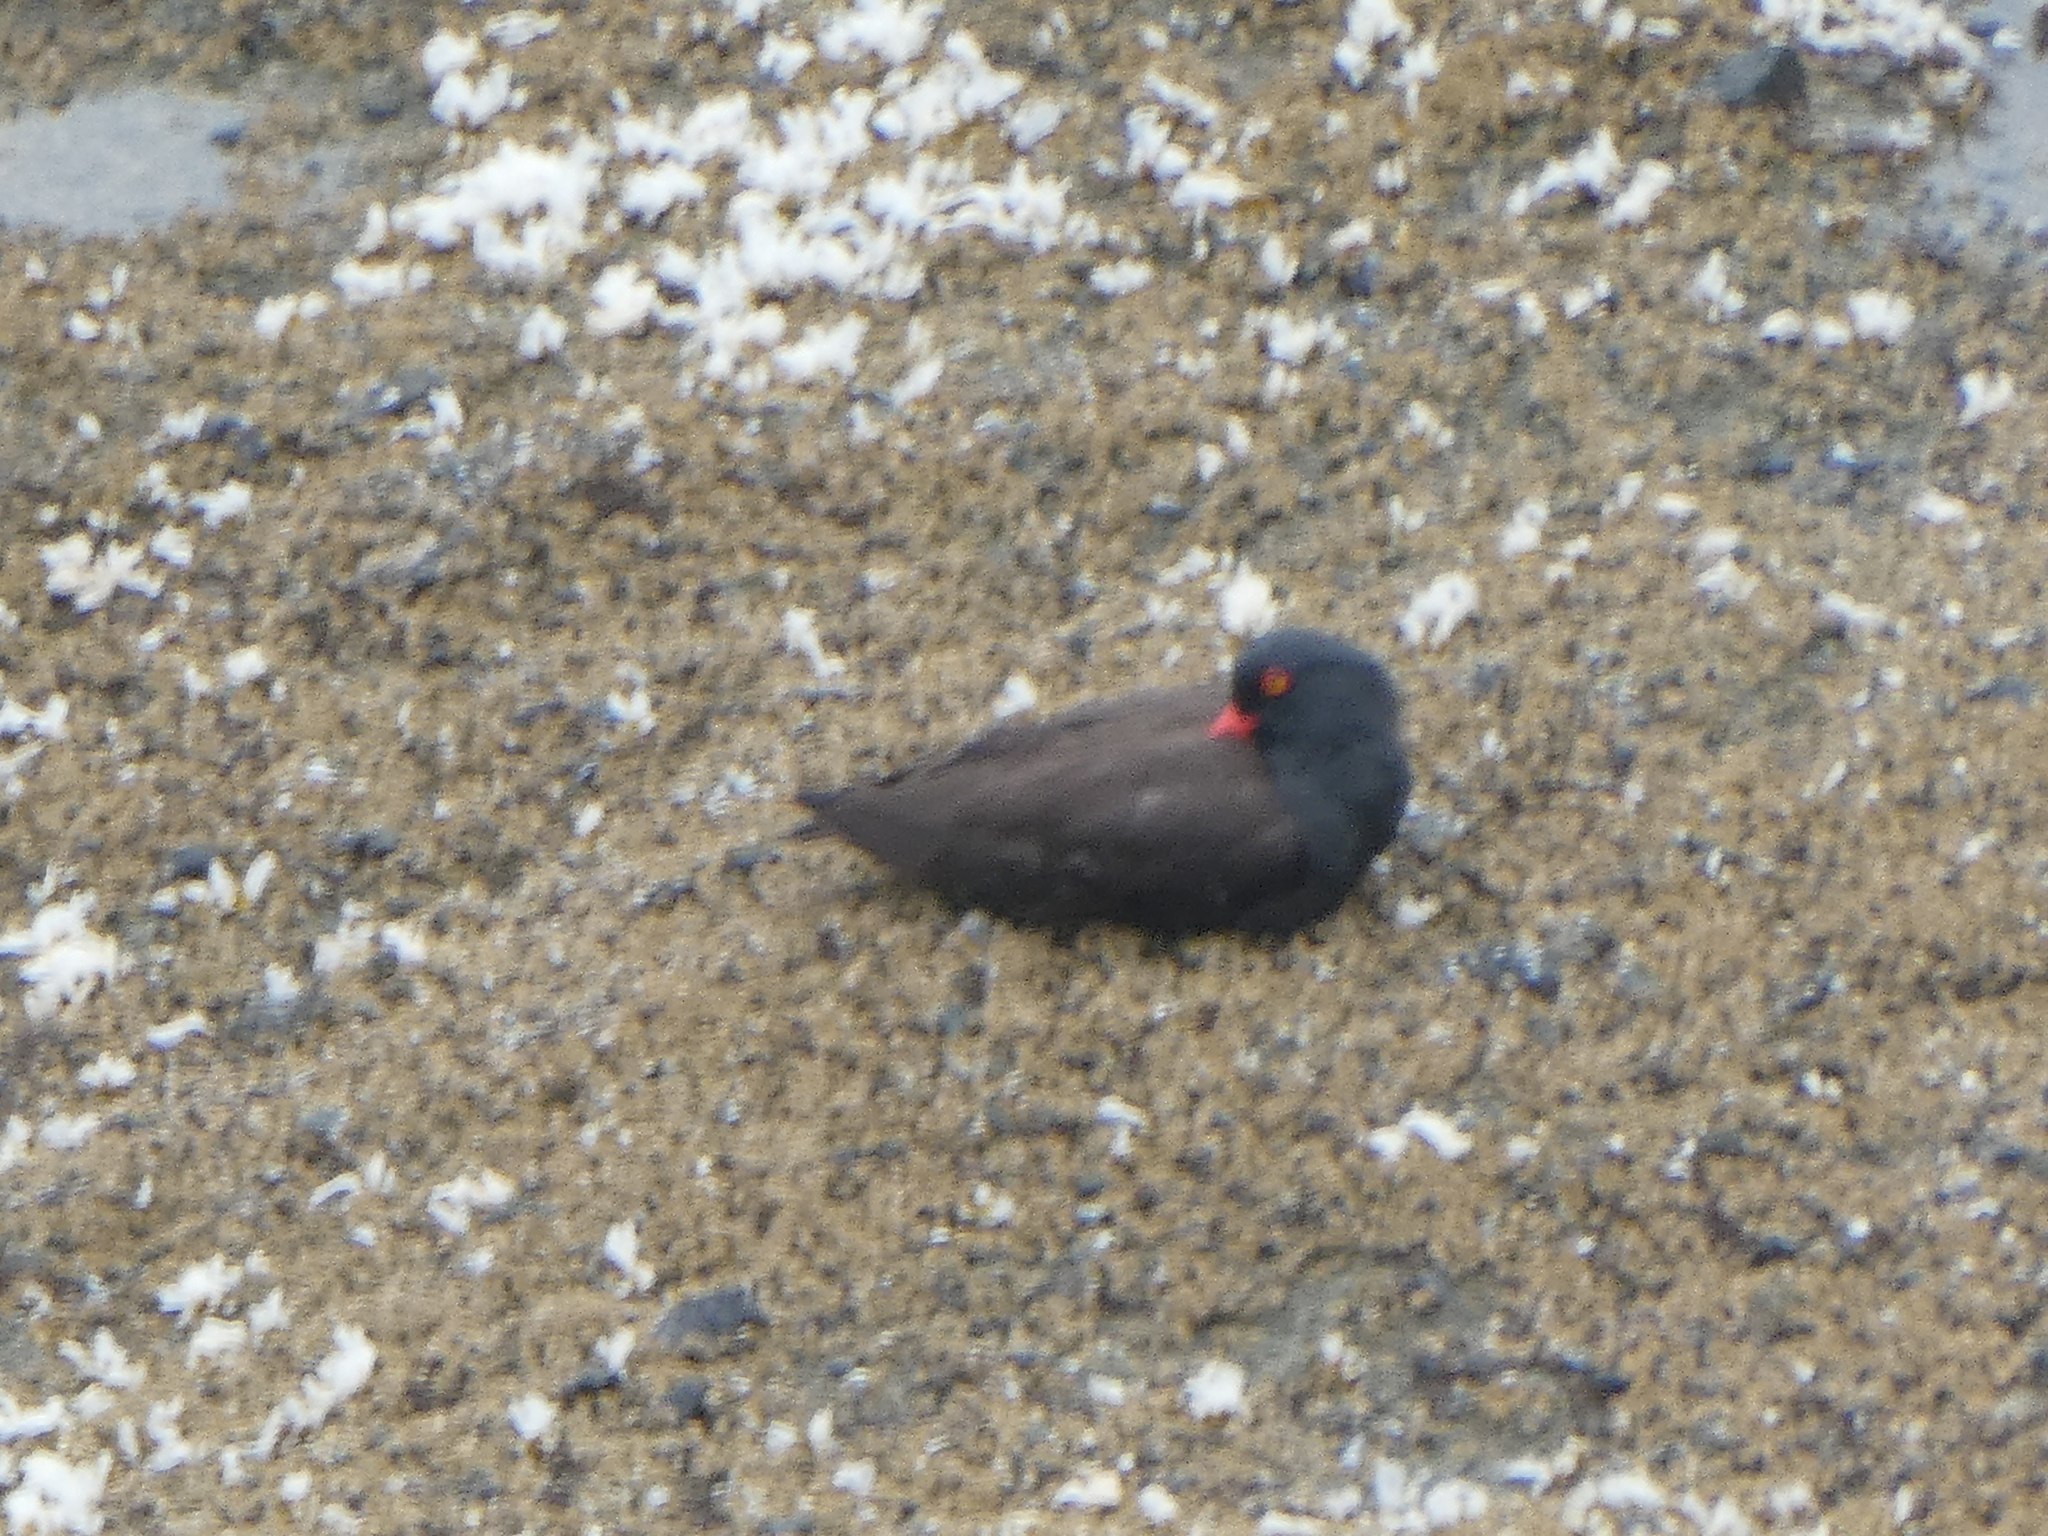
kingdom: Animalia
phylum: Chordata
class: Aves
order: Charadriiformes
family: Haematopodidae
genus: Haematopus
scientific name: Haematopus bachmani
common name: Black oystercatcher
